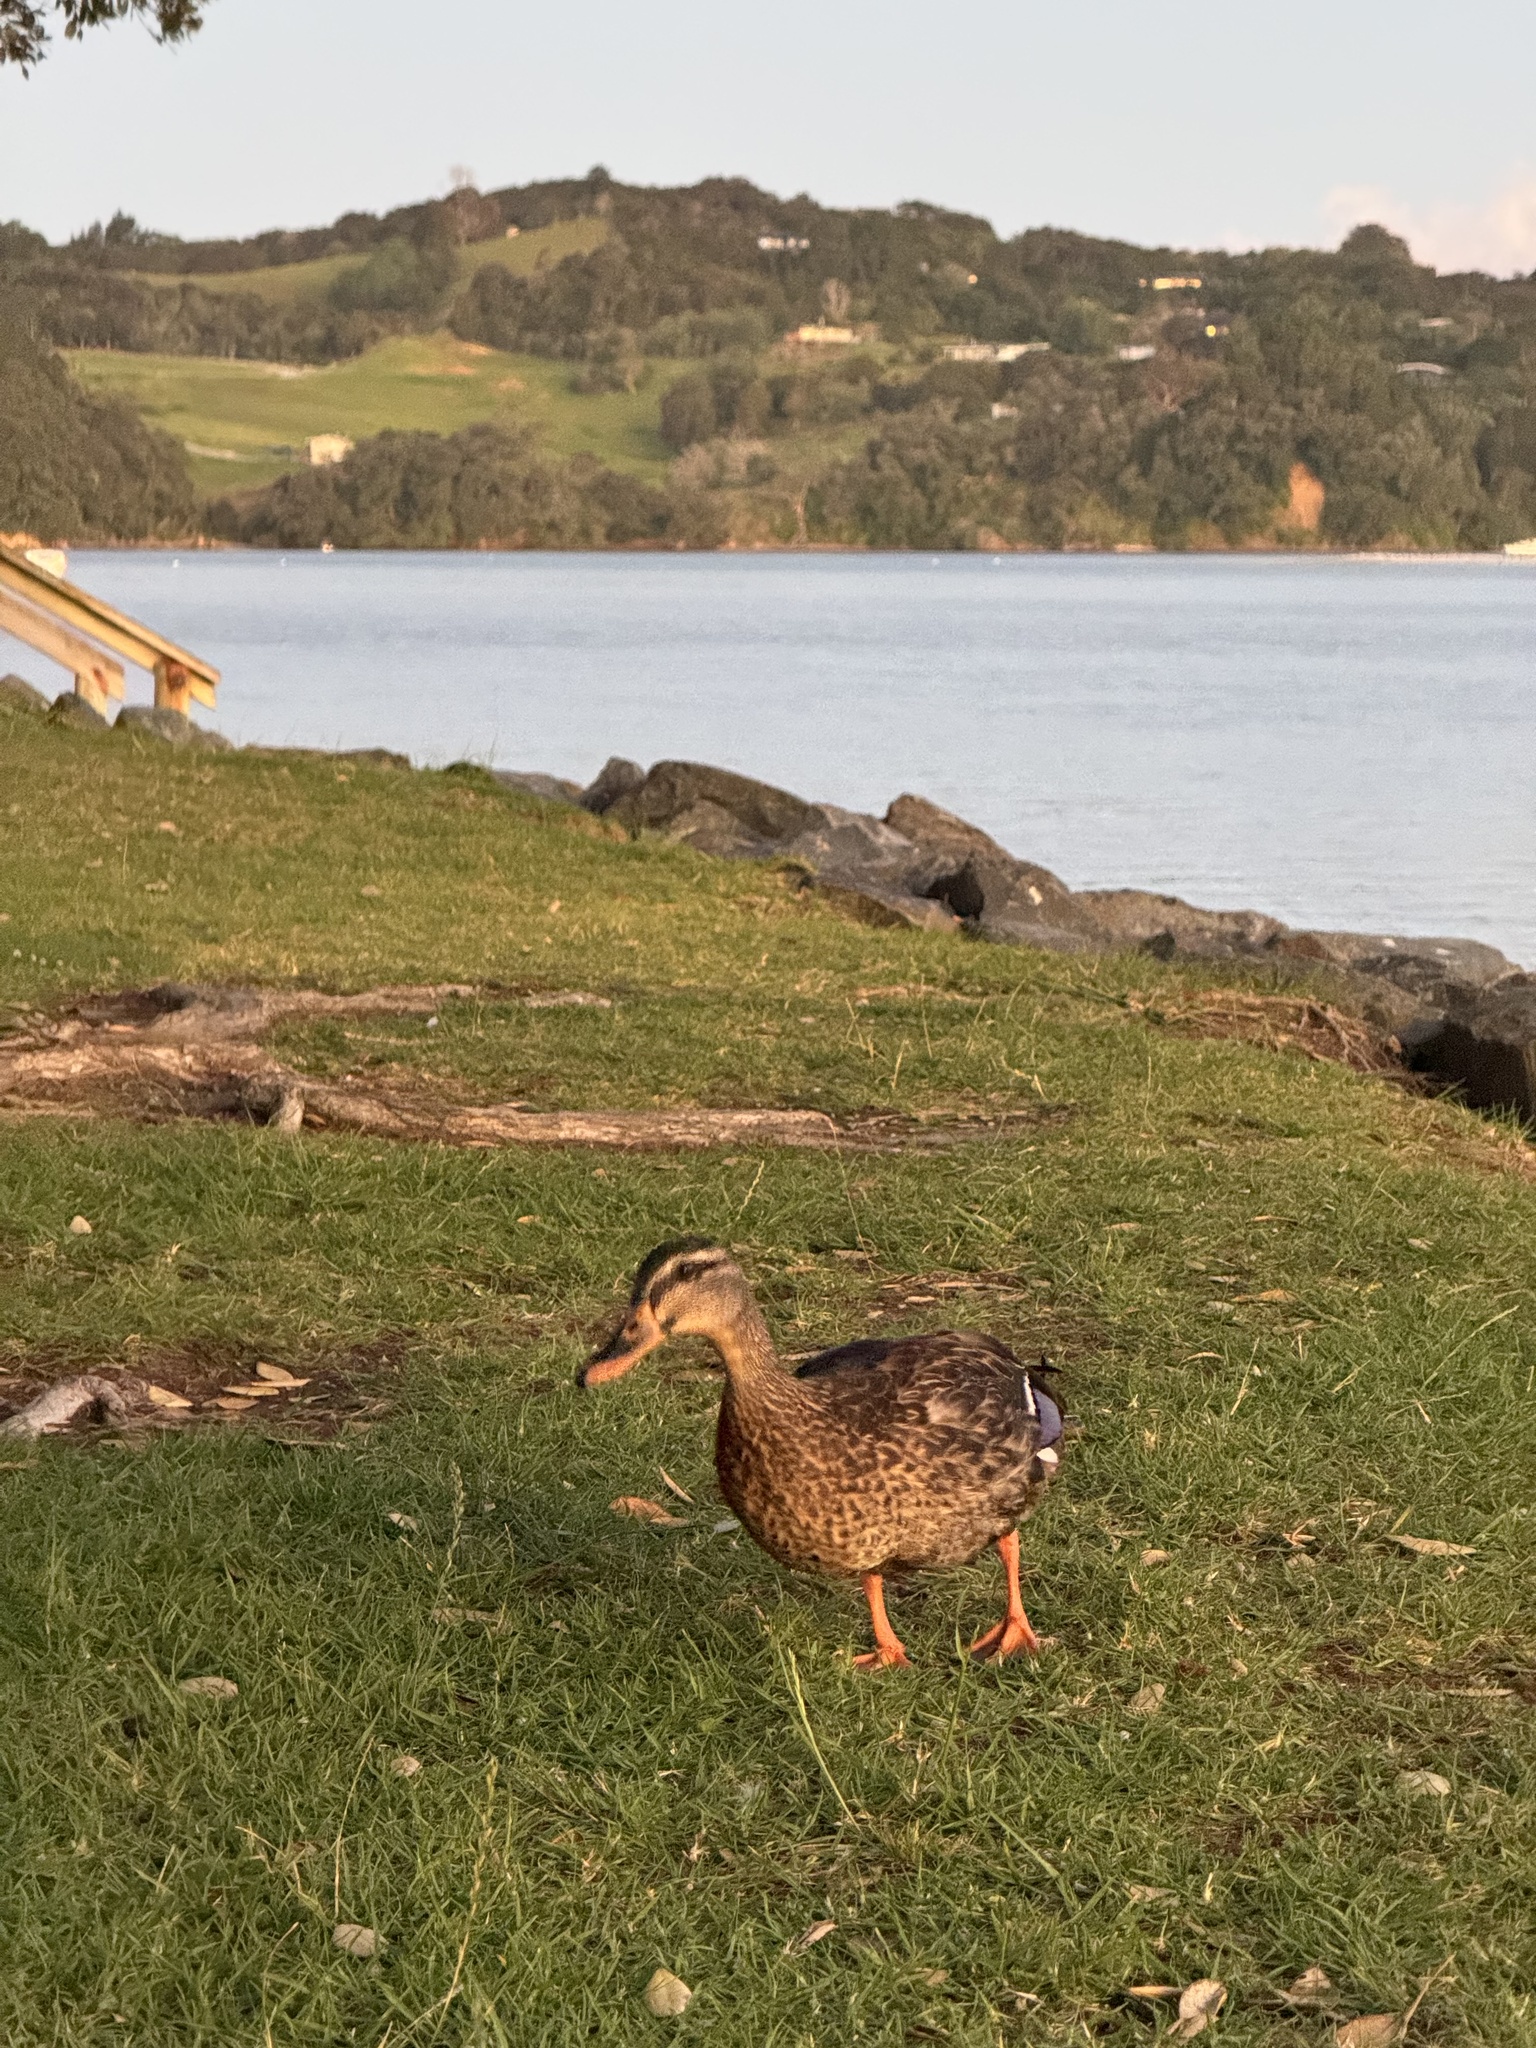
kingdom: Animalia
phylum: Chordata
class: Aves
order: Anseriformes
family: Anatidae
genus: Anas
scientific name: Anas
